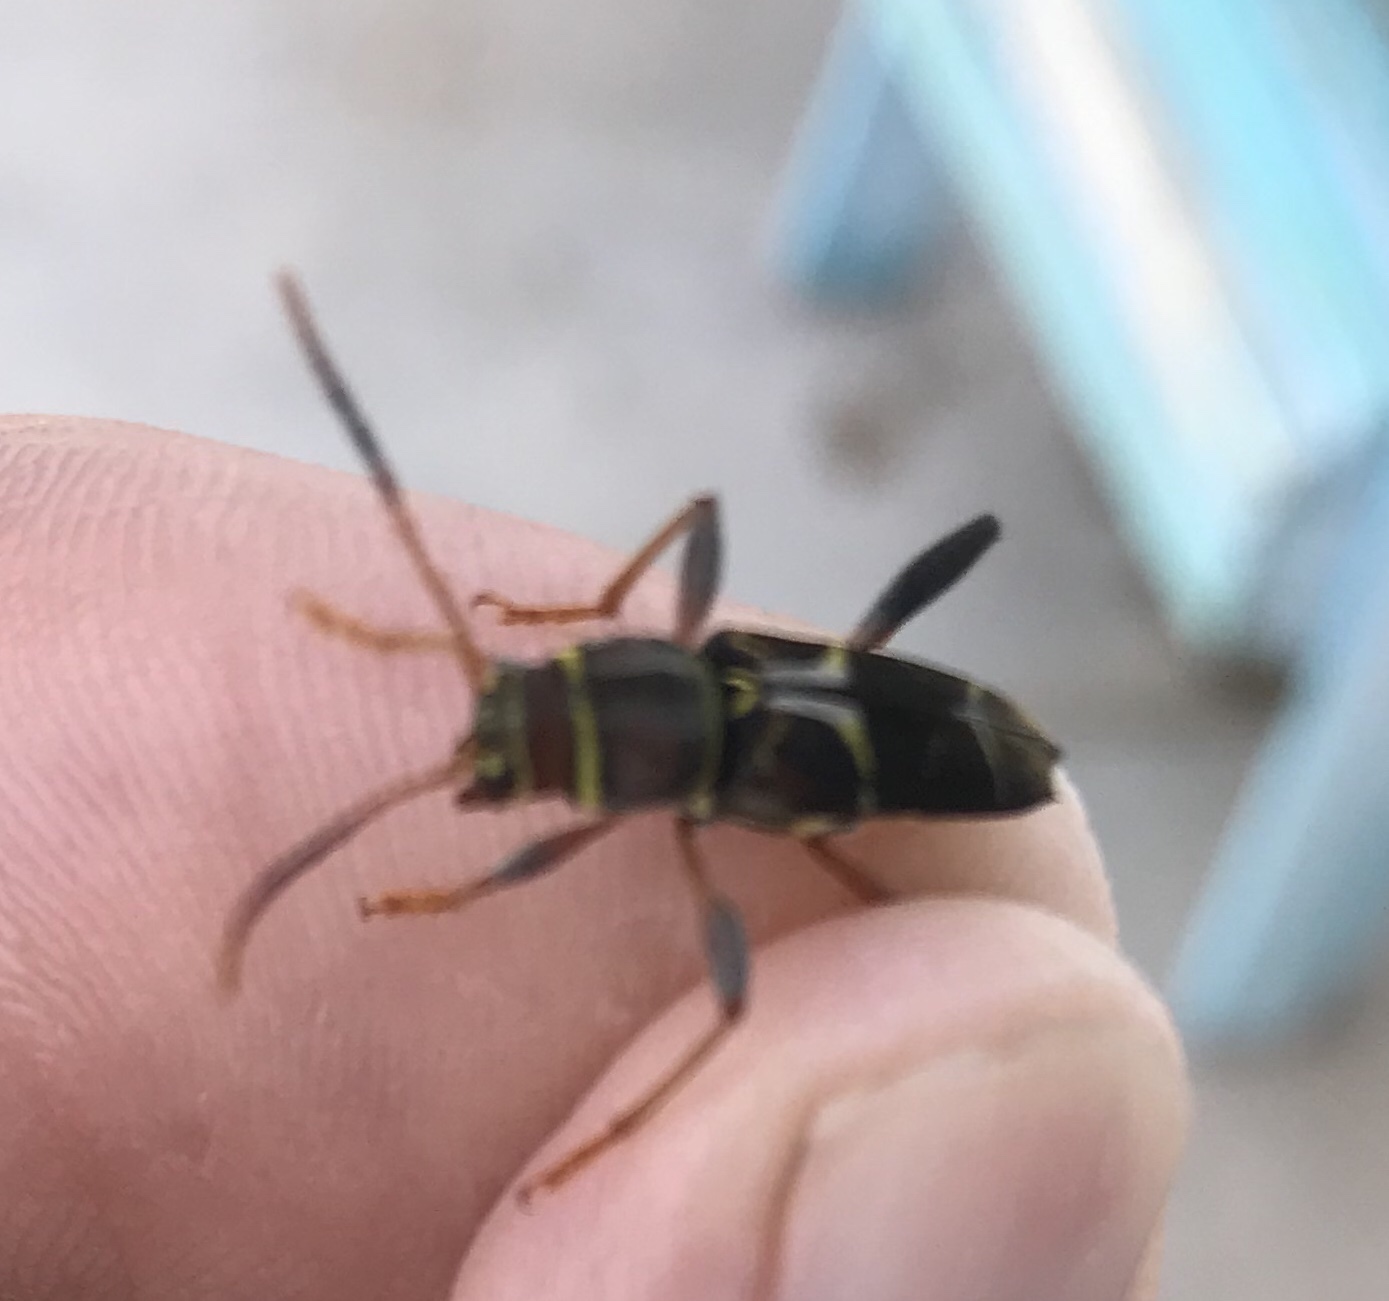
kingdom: Animalia
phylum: Arthropoda
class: Insecta
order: Coleoptera
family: Cerambycidae
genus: Neoclytus
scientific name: Neoclytus mucronatus
